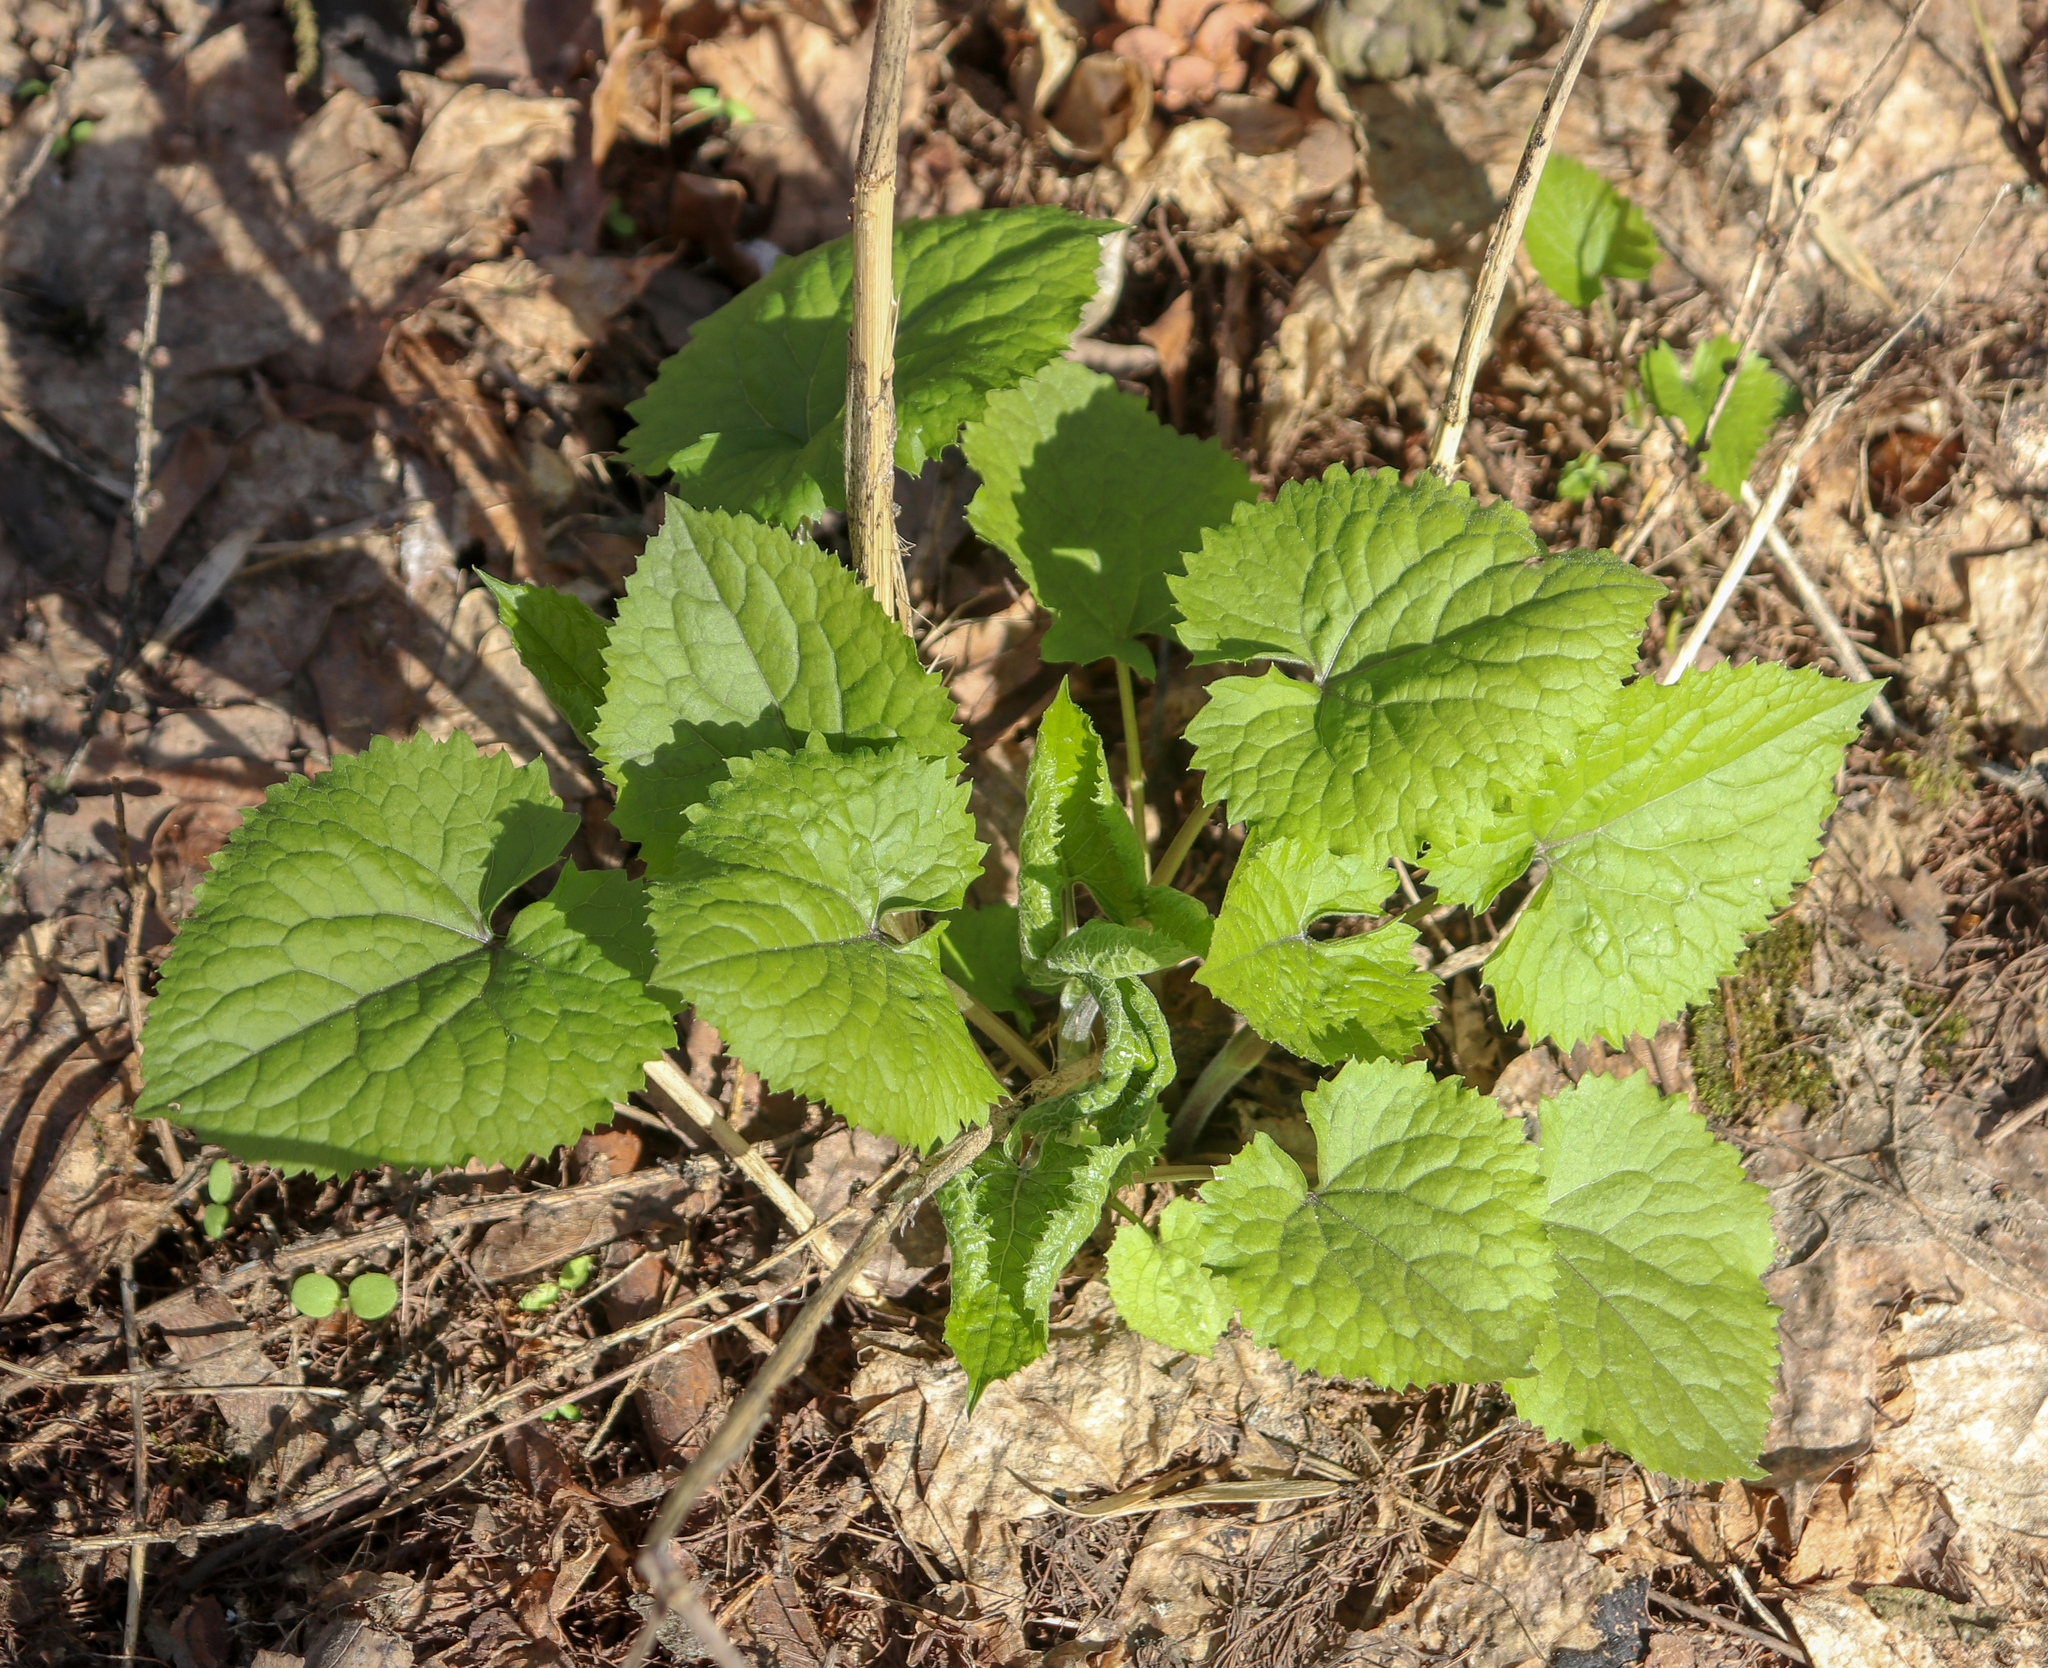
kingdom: Plantae
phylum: Tracheophyta
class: Magnoliopsida
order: Brassicales
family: Brassicaceae
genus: Alliaria
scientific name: Alliaria petiolata
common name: Garlic mustard
